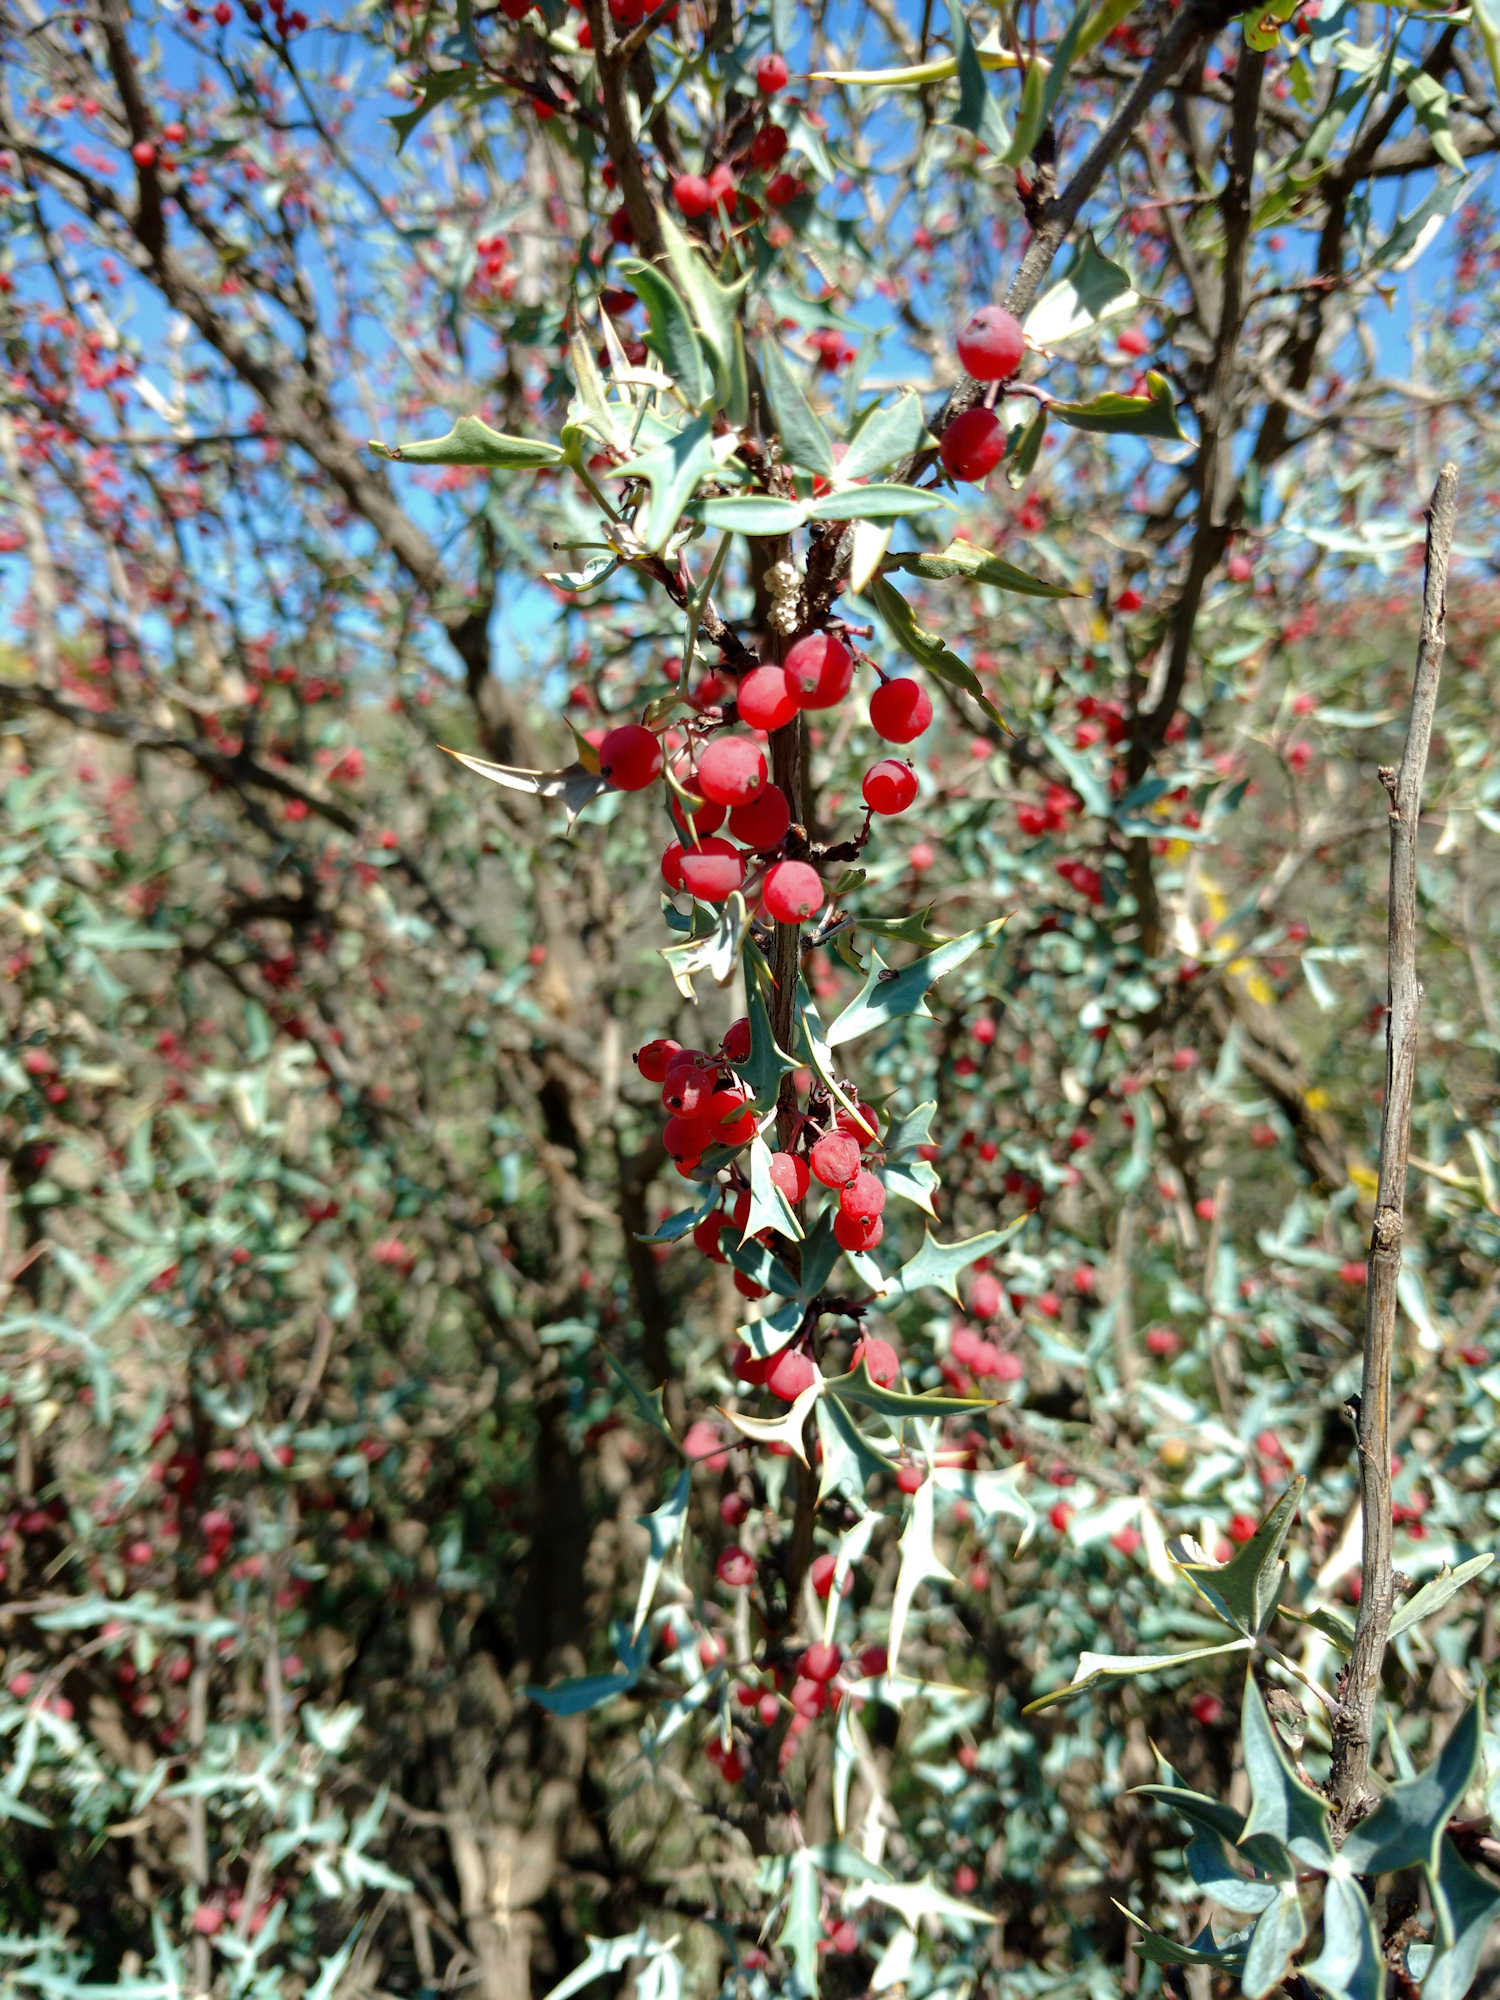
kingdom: Plantae
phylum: Tracheophyta
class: Magnoliopsida
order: Ranunculales
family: Berberidaceae
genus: Alloberberis
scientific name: Alloberberis trifoliolata
